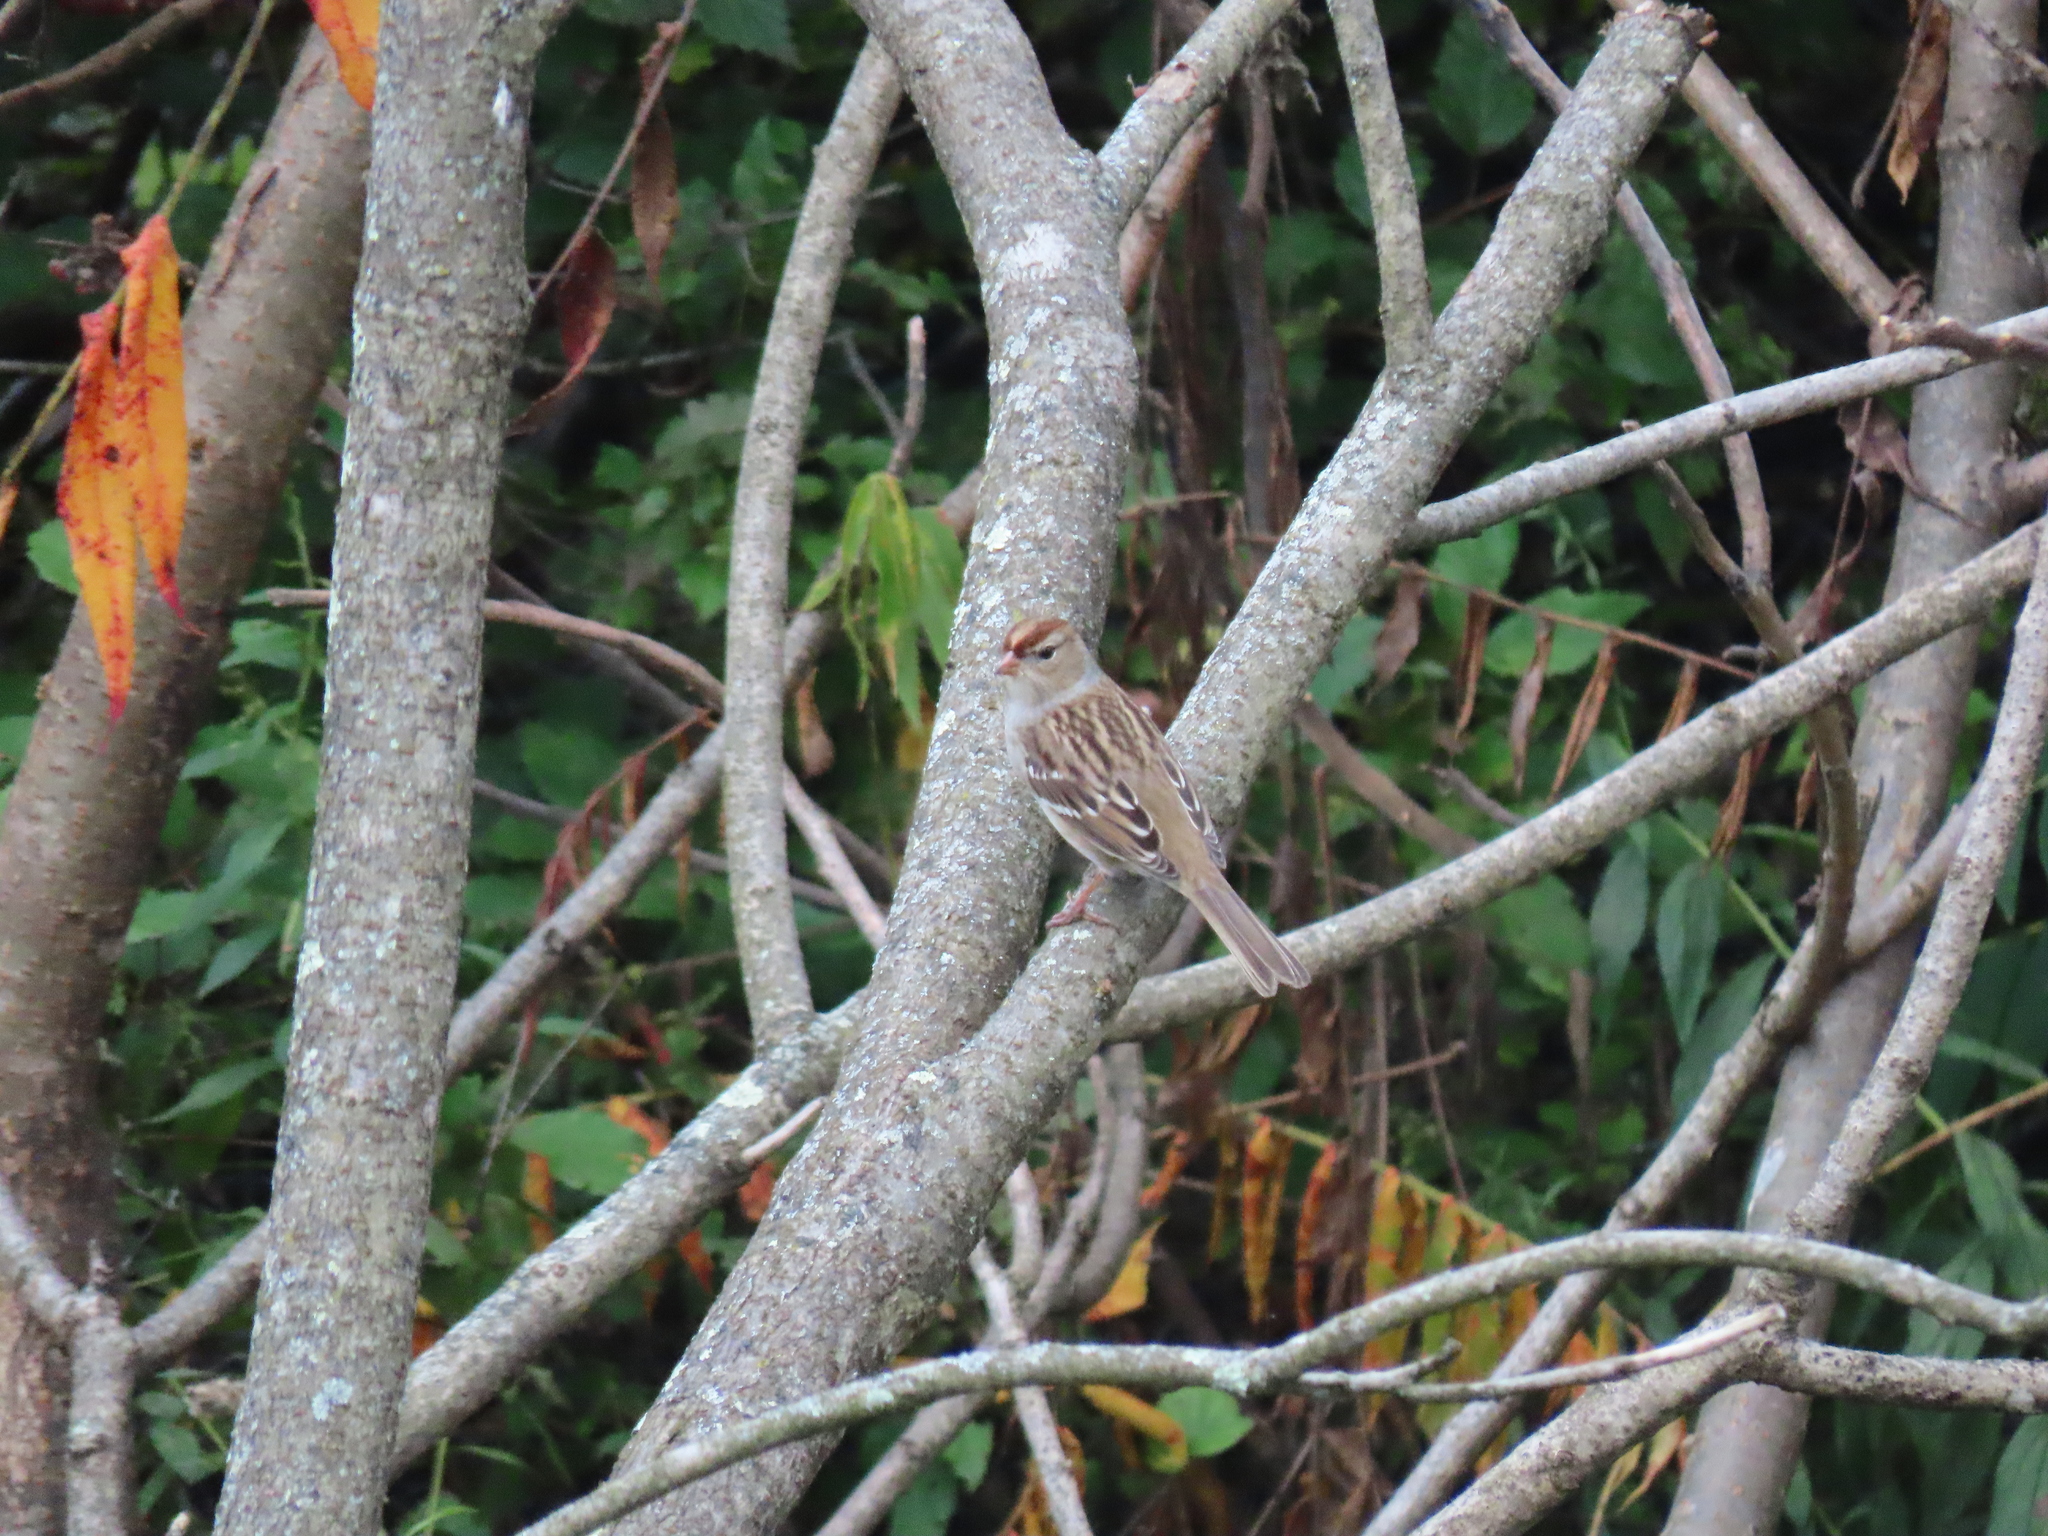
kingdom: Animalia
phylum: Chordata
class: Aves
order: Passeriformes
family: Passerellidae
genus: Zonotrichia
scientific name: Zonotrichia leucophrys
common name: White-crowned sparrow
